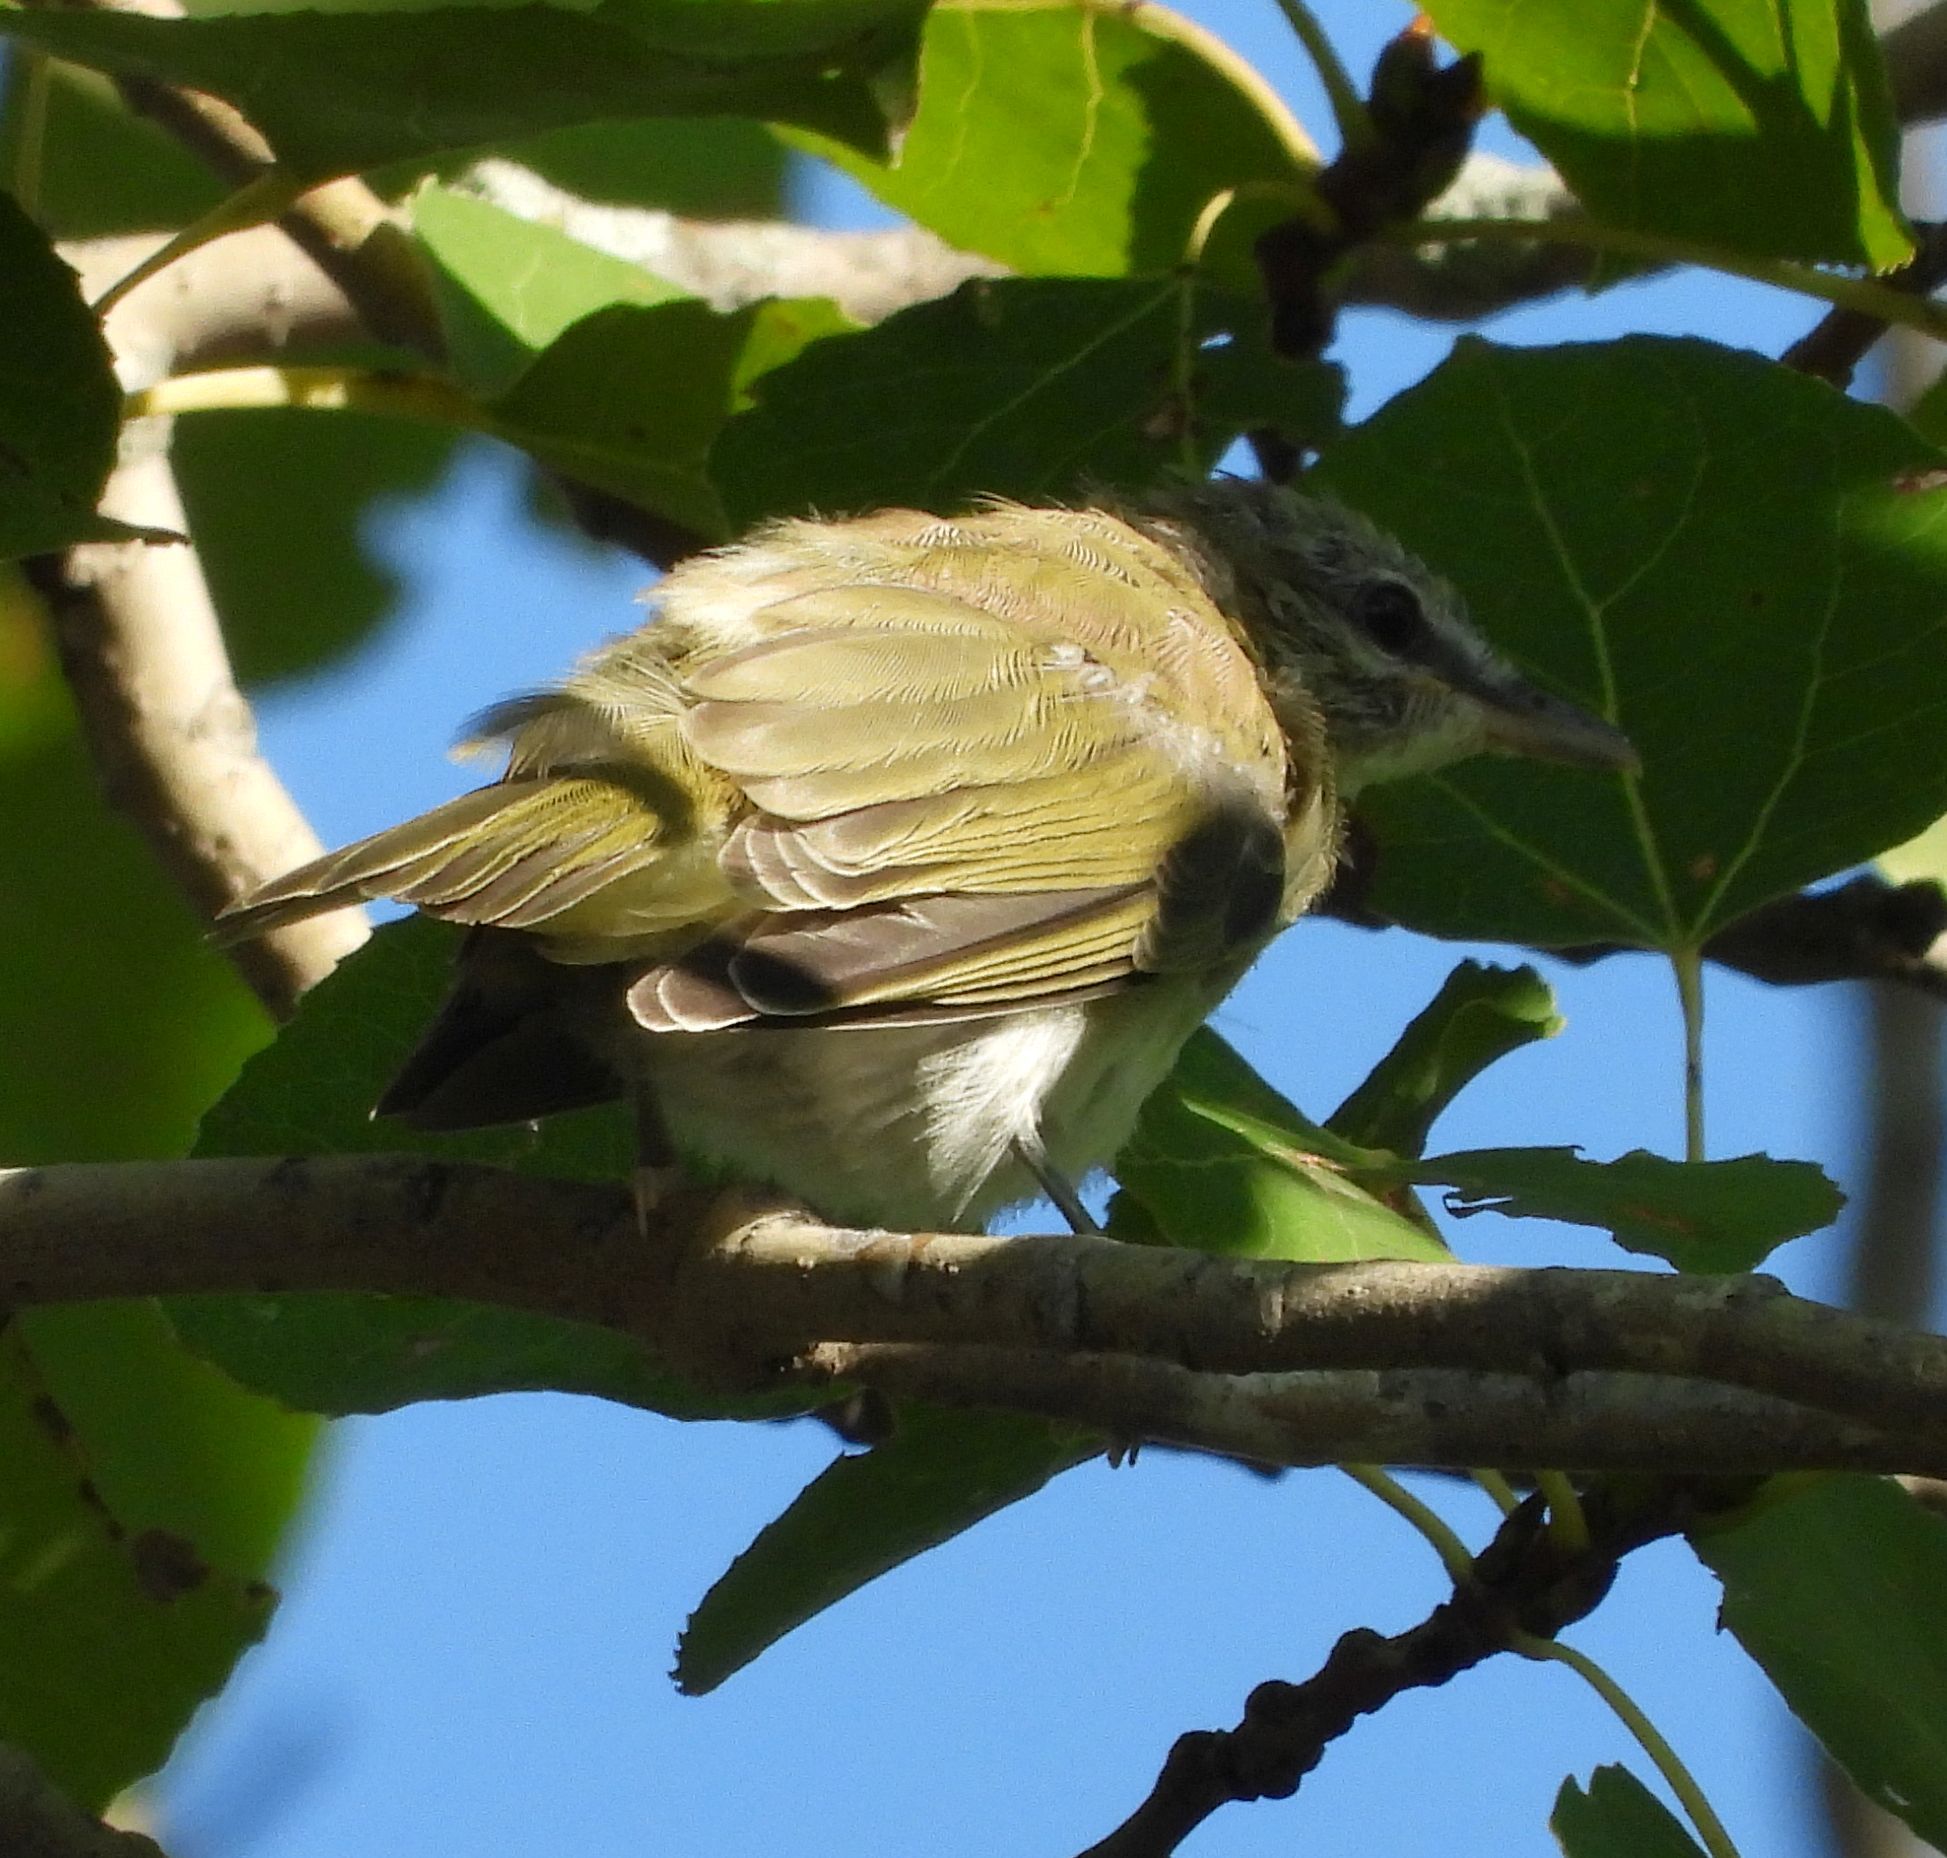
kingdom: Animalia
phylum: Chordata
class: Aves
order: Passeriformes
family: Vireonidae
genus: Vireo
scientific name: Vireo olivaceus
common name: Red-eyed vireo
